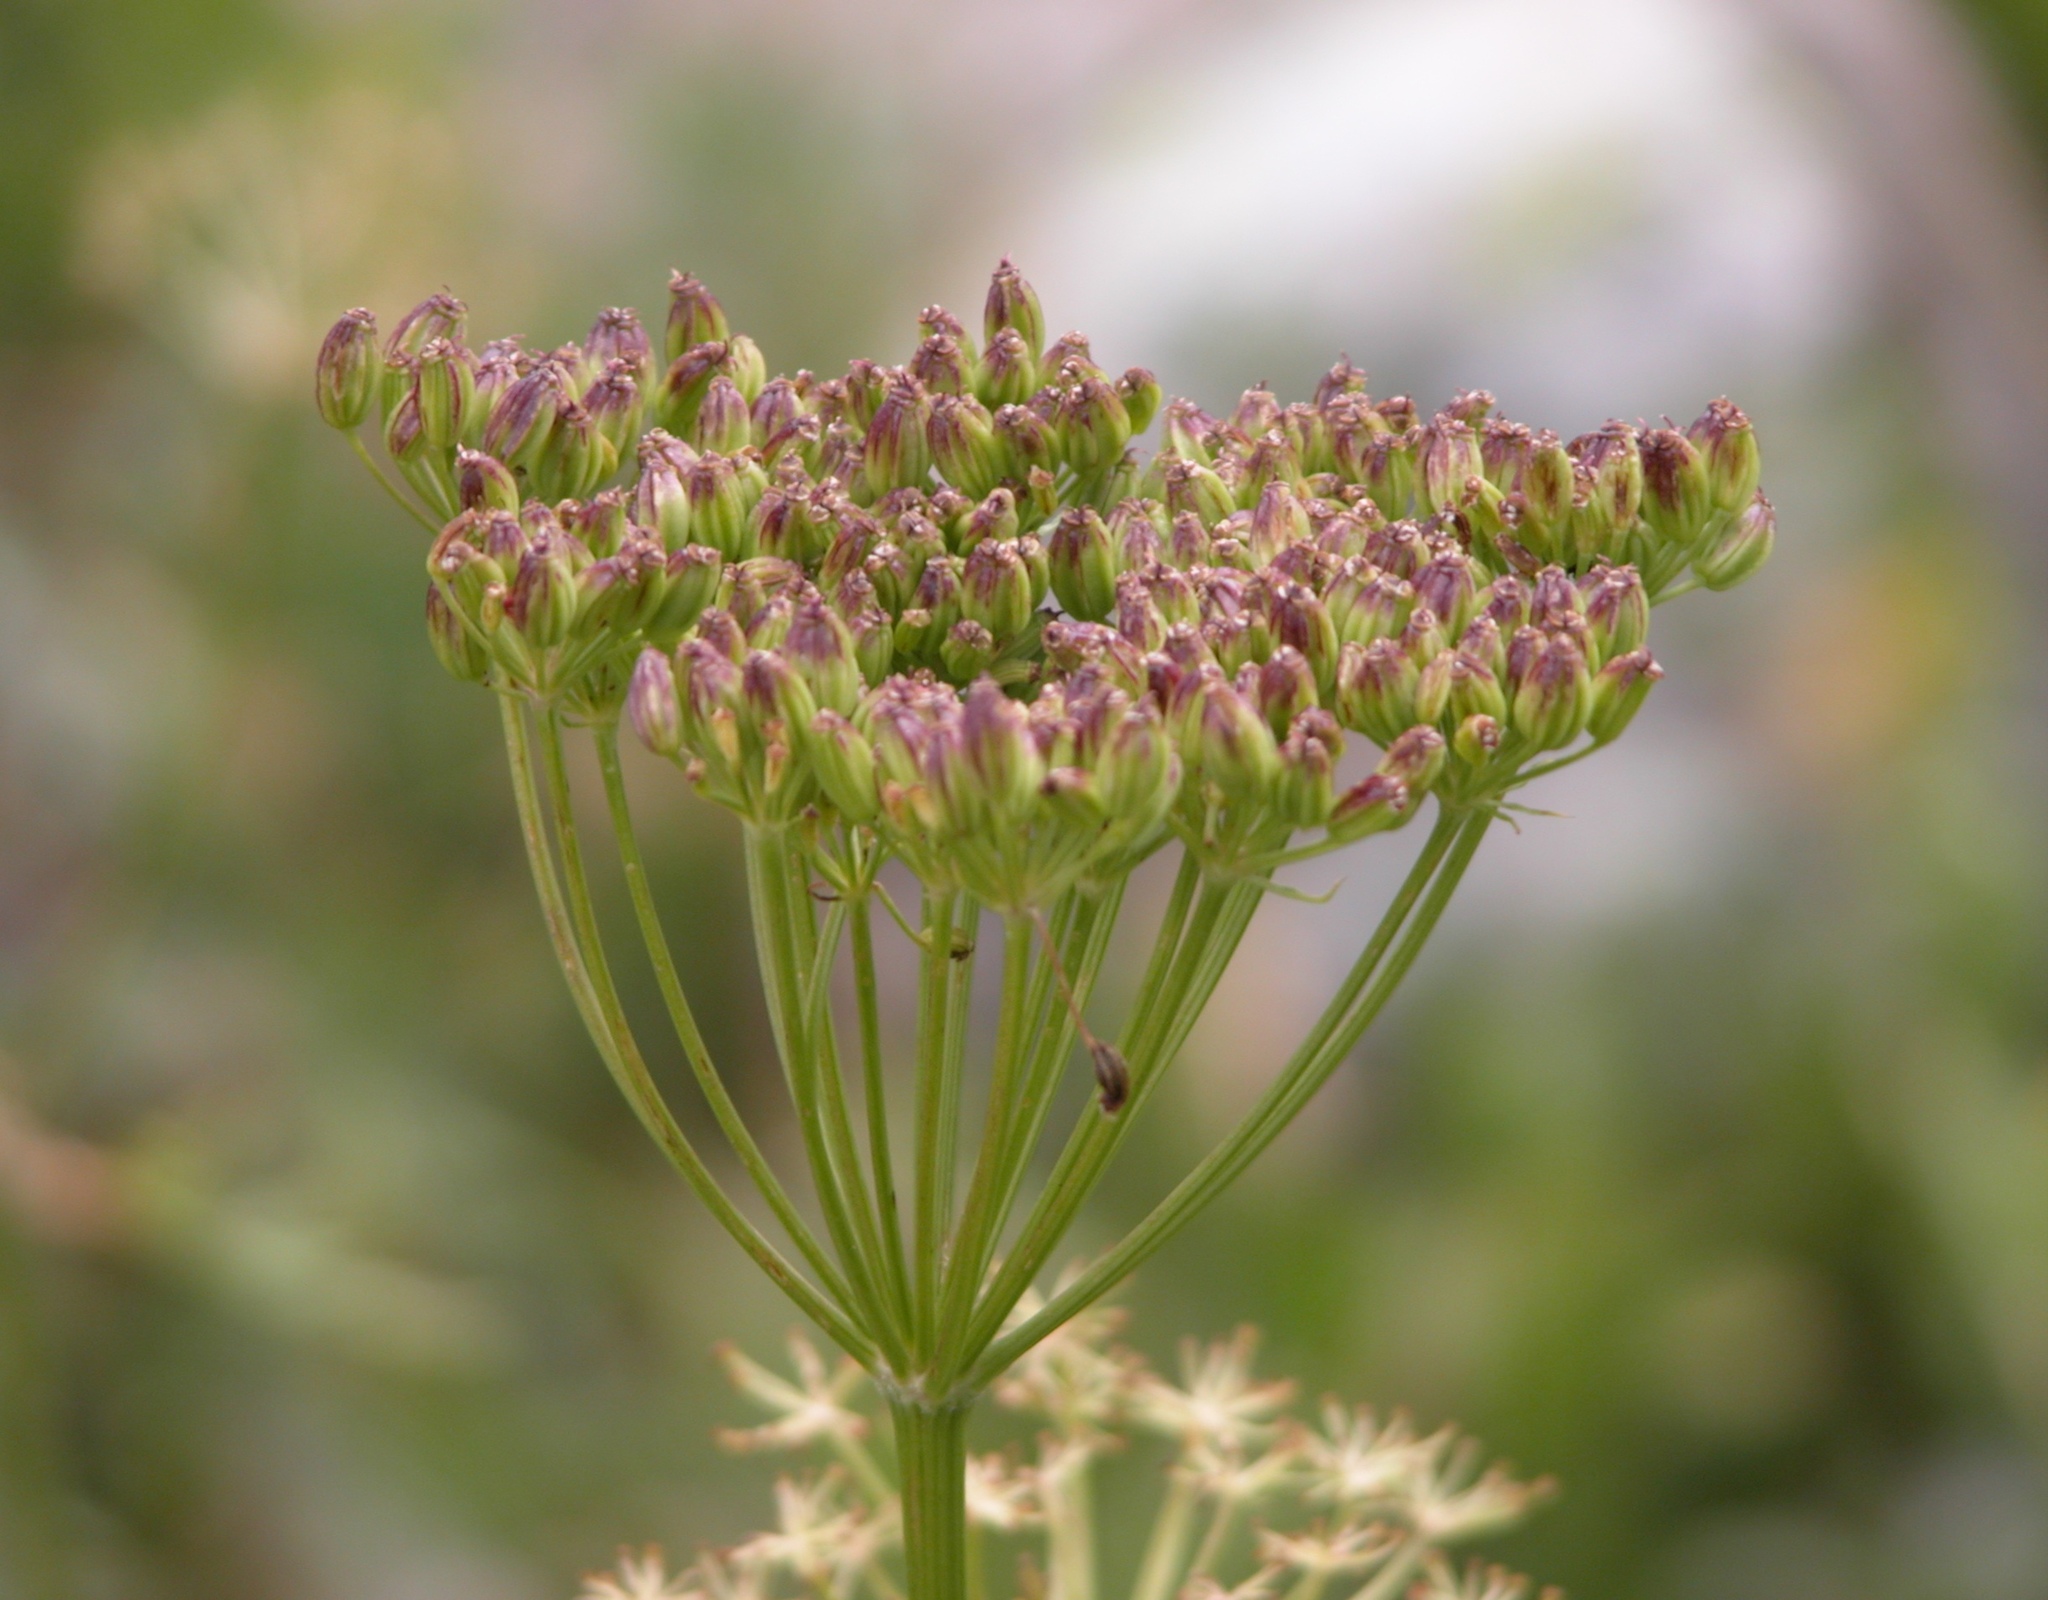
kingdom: Plantae
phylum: Tracheophyta
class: Magnoliopsida
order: Apiales
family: Apiaceae
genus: Heracleum
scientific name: Heracleum maximum
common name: American cow parsnip
